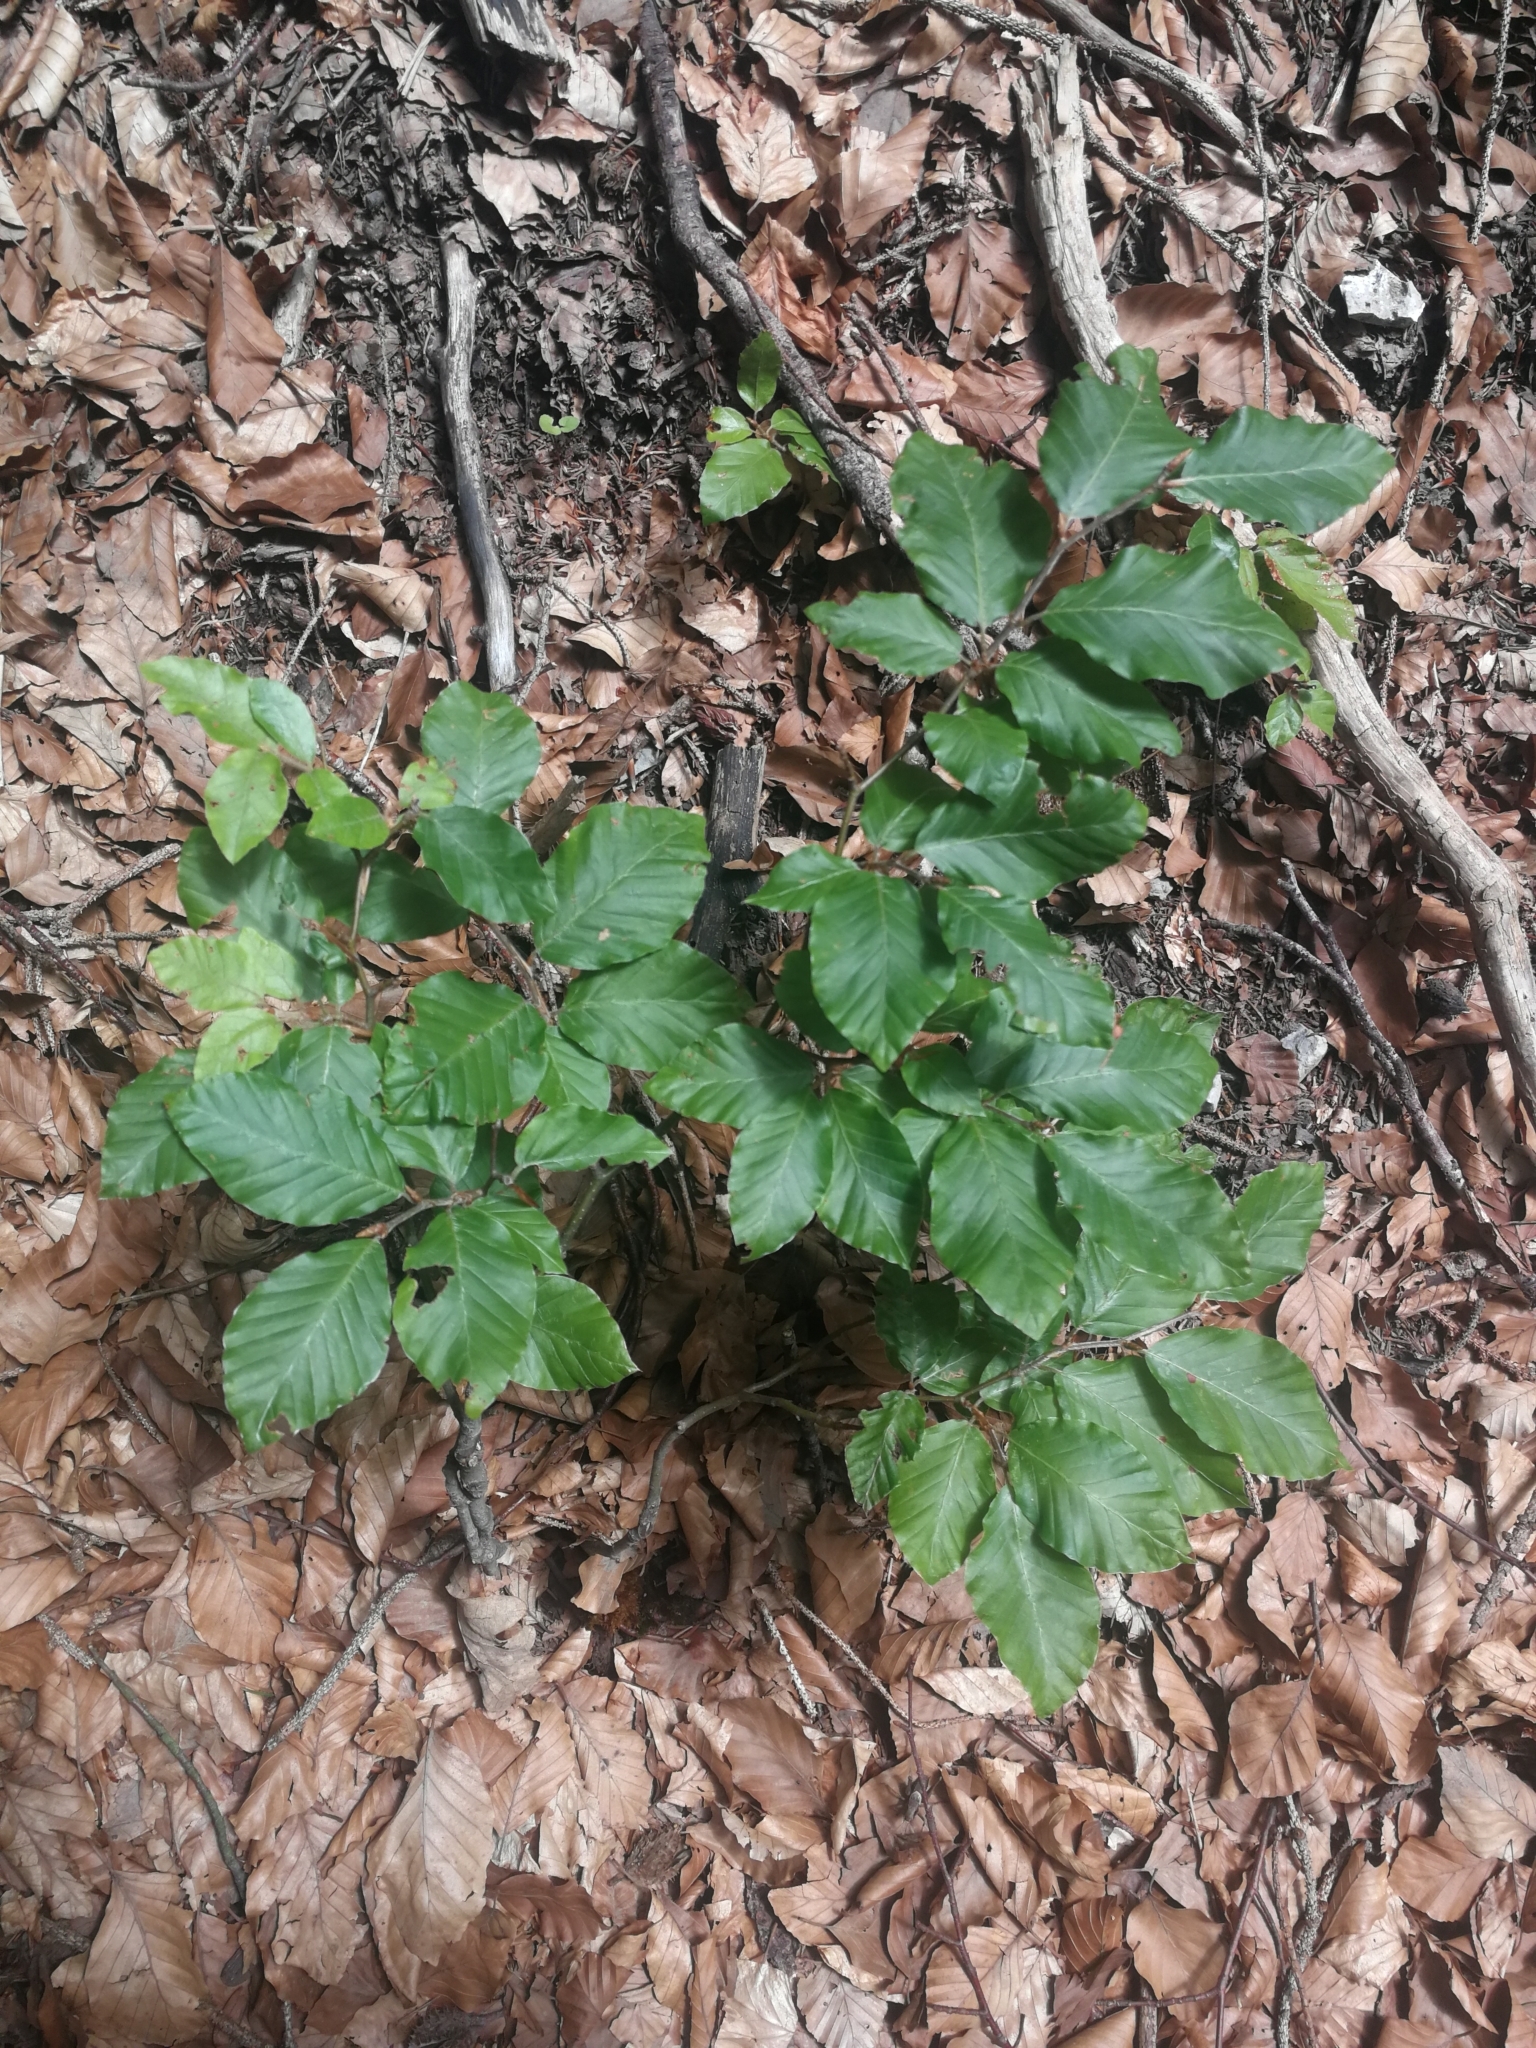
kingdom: Plantae
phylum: Tracheophyta
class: Magnoliopsida
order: Fagales
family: Fagaceae
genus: Fagus
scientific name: Fagus sylvatica
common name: Beech
